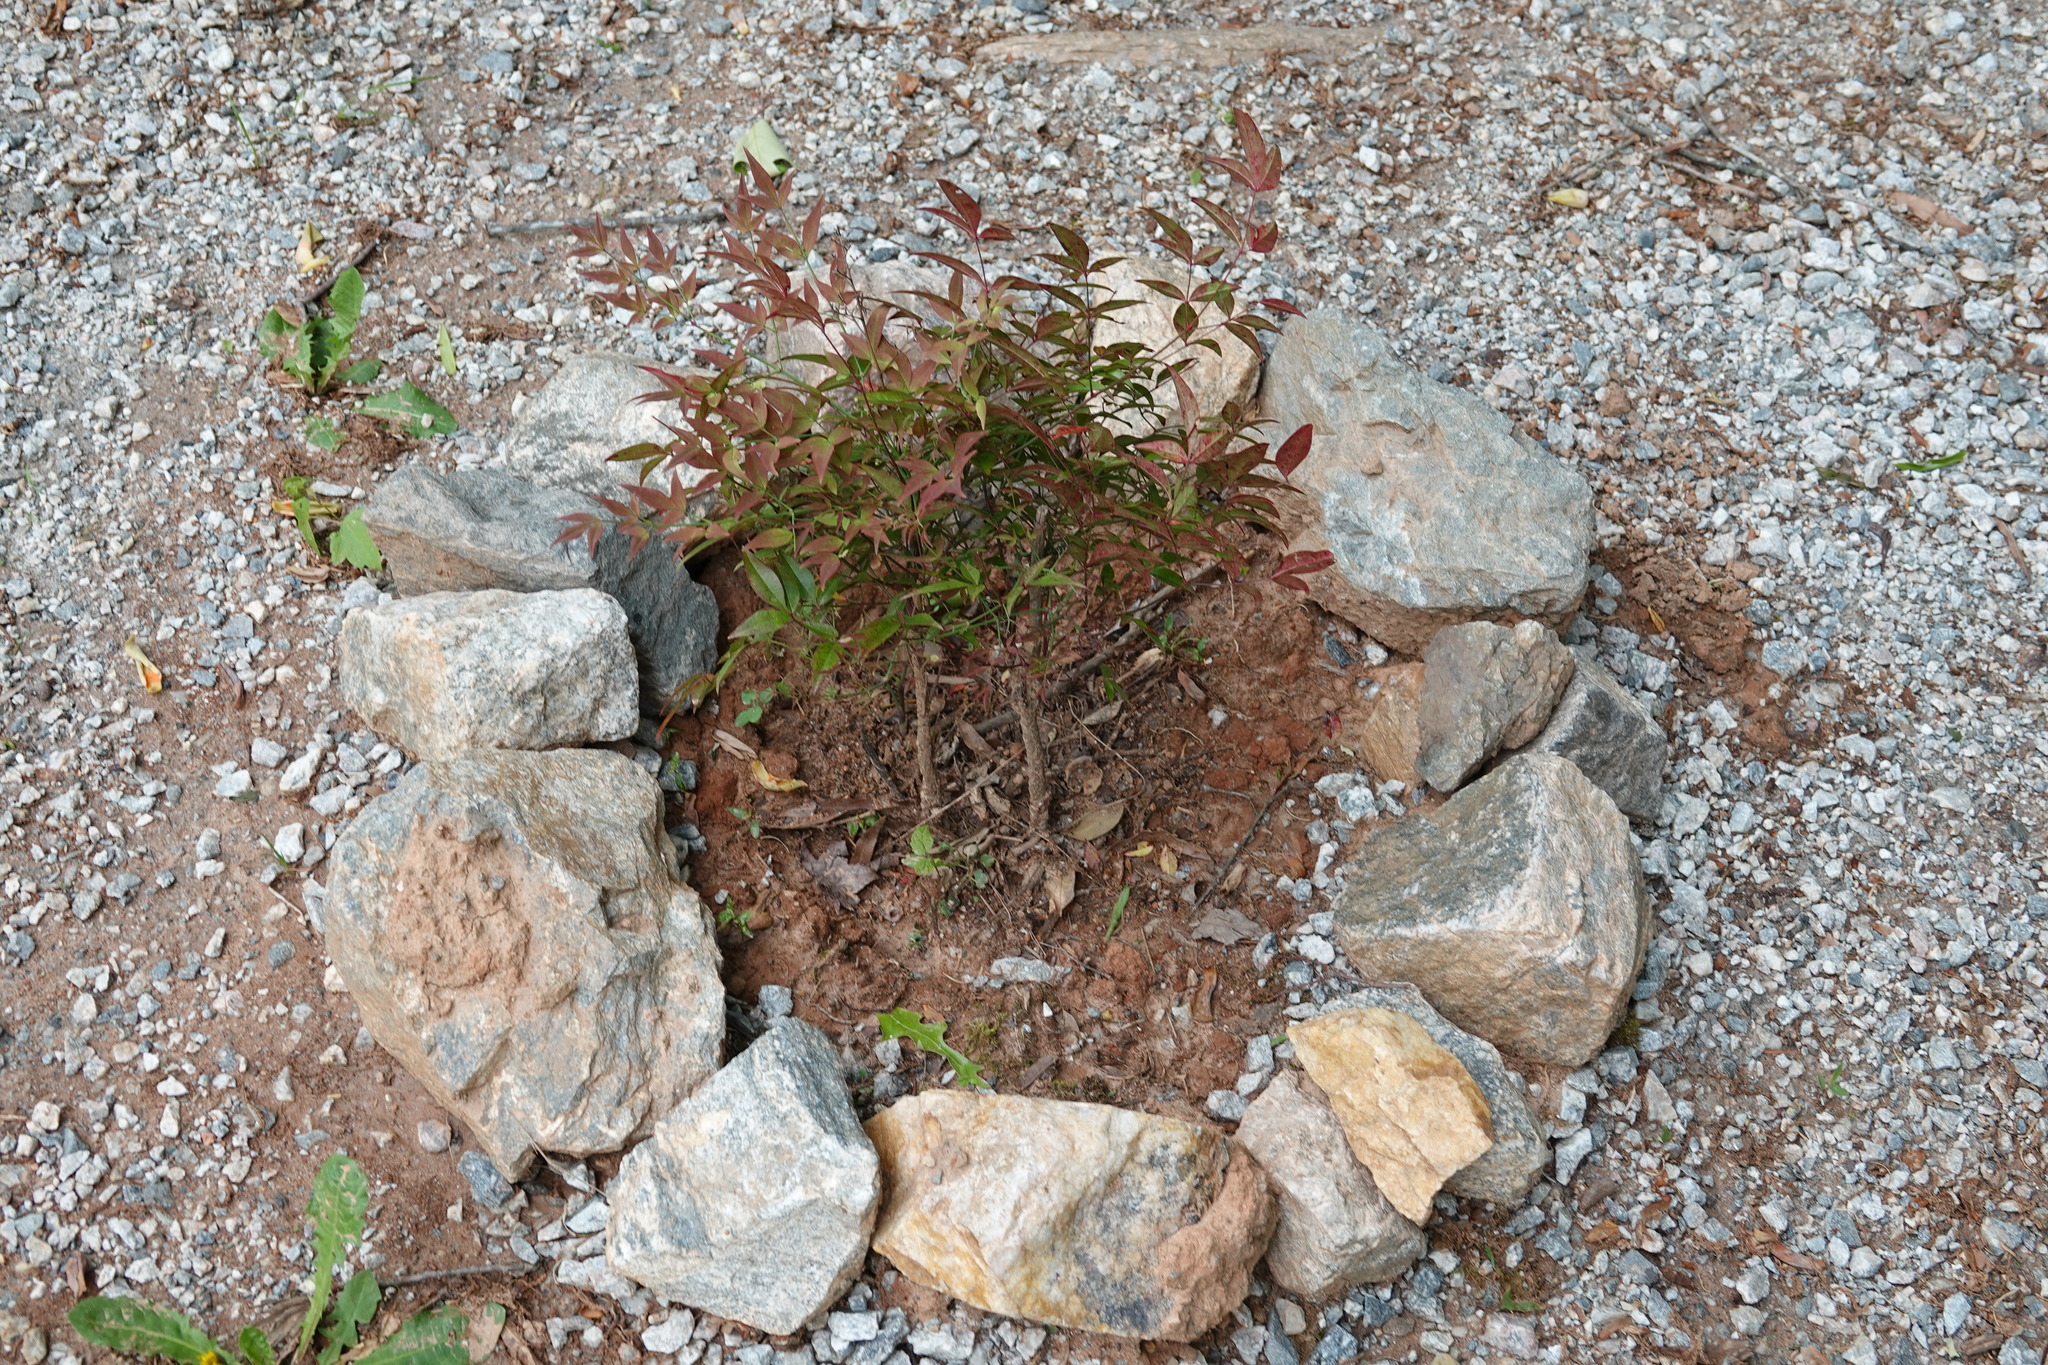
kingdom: Plantae
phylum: Tracheophyta
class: Magnoliopsida
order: Ranunculales
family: Berberidaceae
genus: Nandina
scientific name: Nandina domestica
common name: Sacred bamboo
